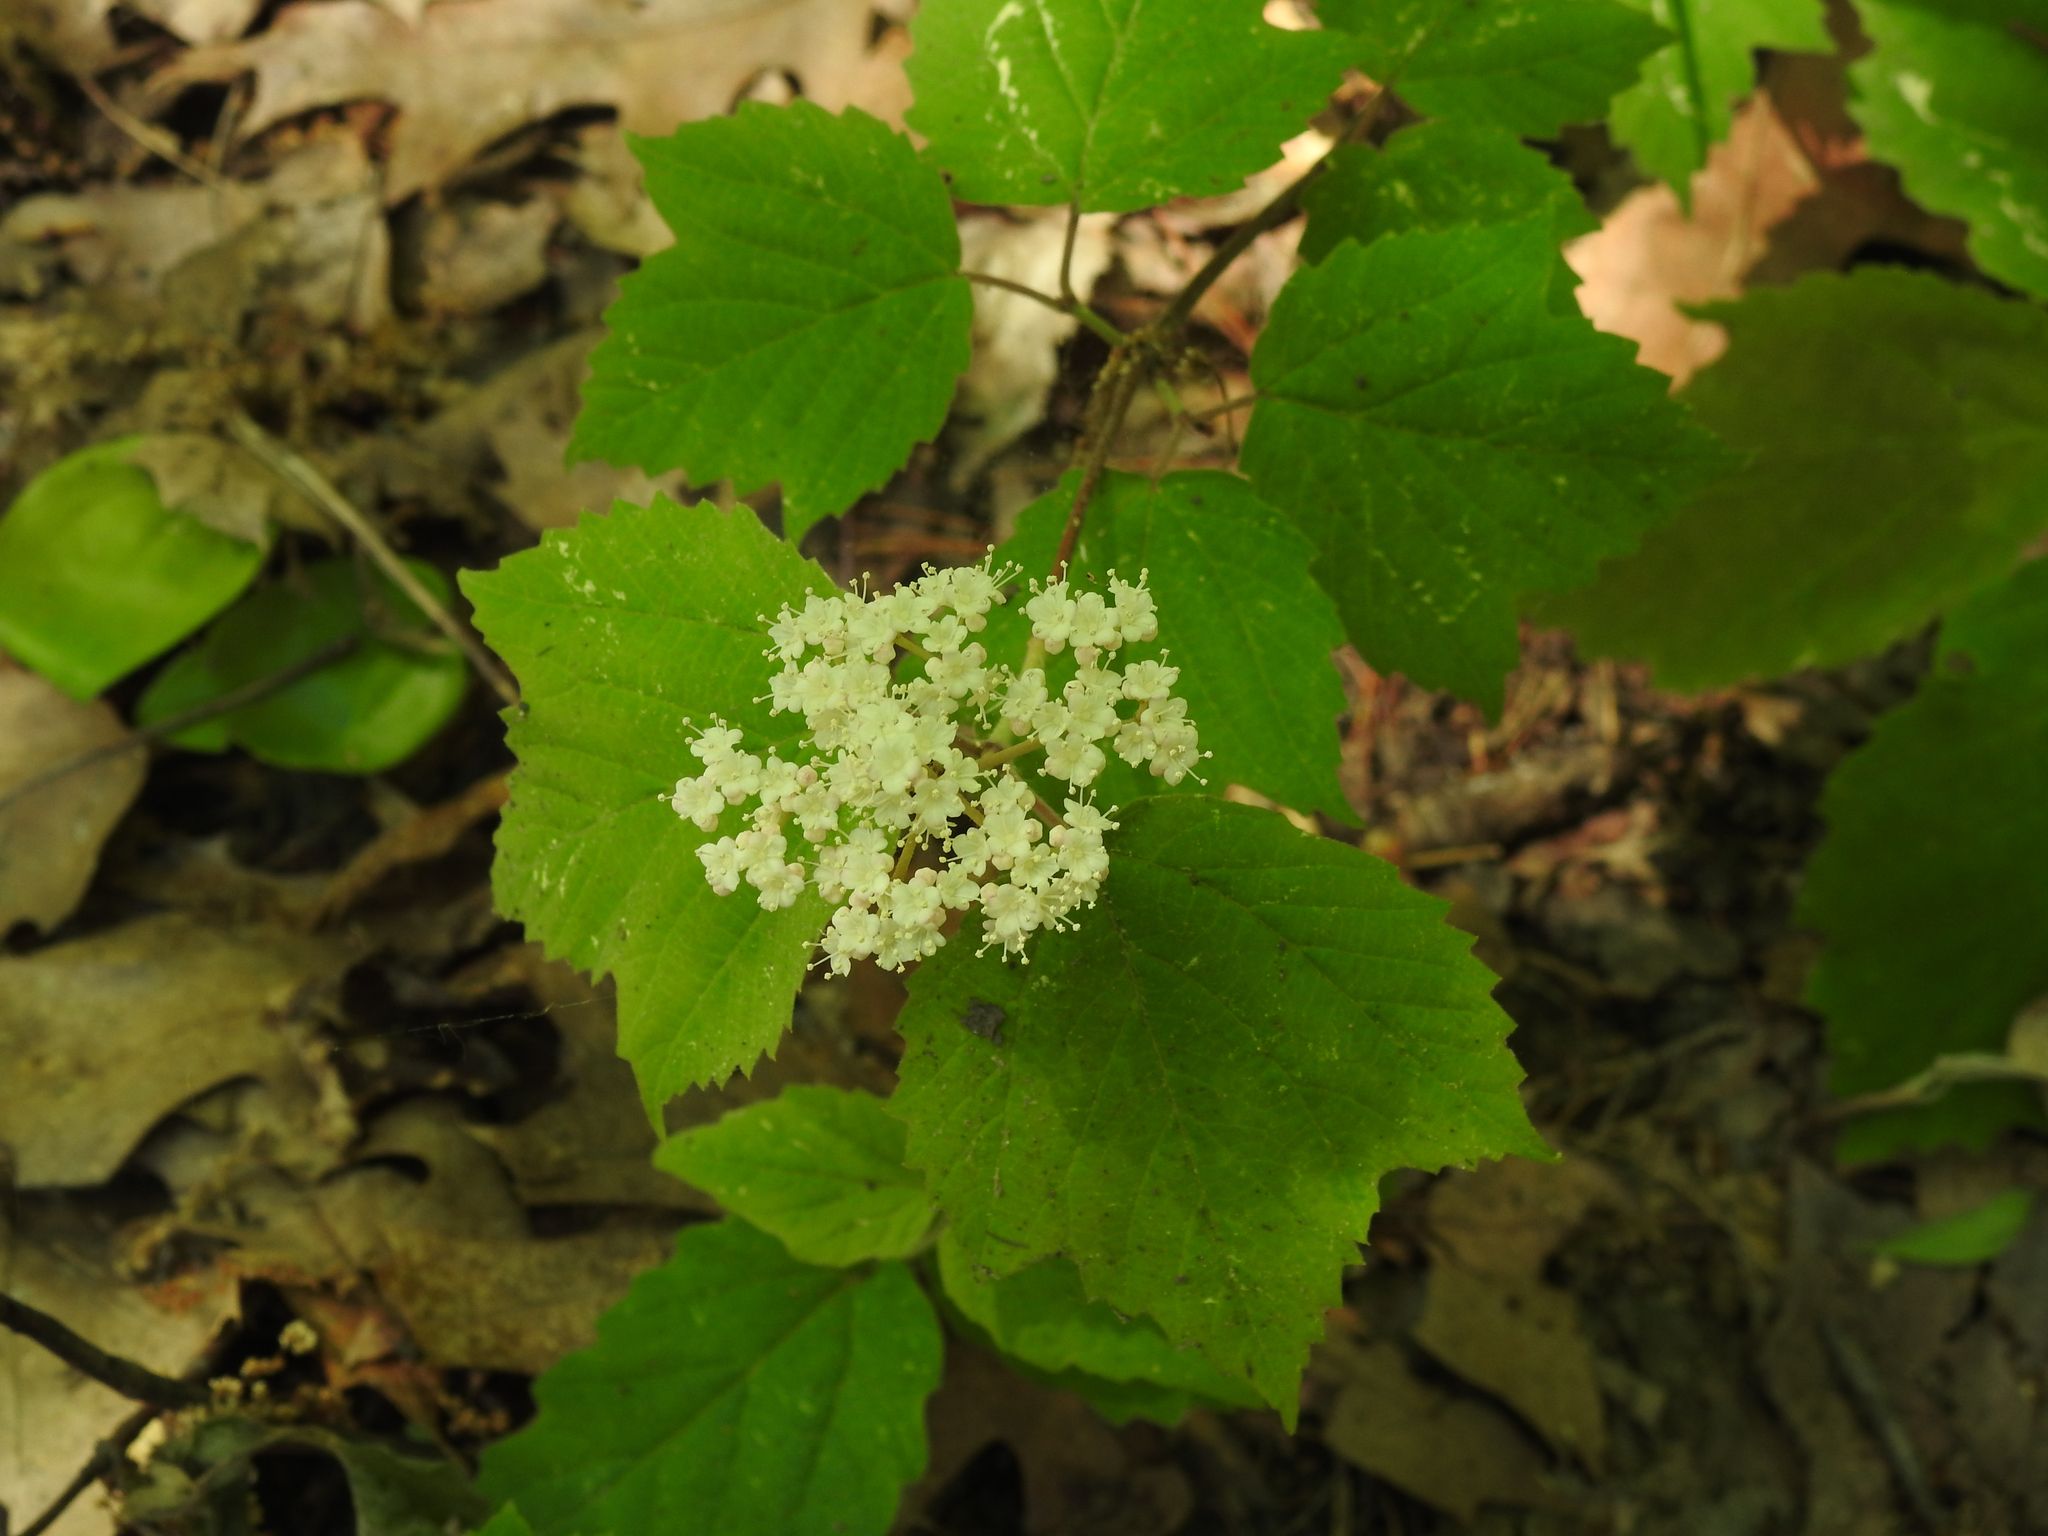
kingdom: Plantae
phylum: Tracheophyta
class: Magnoliopsida
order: Dipsacales
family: Viburnaceae
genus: Viburnum
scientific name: Viburnum acerifolium
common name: Dockmackie
